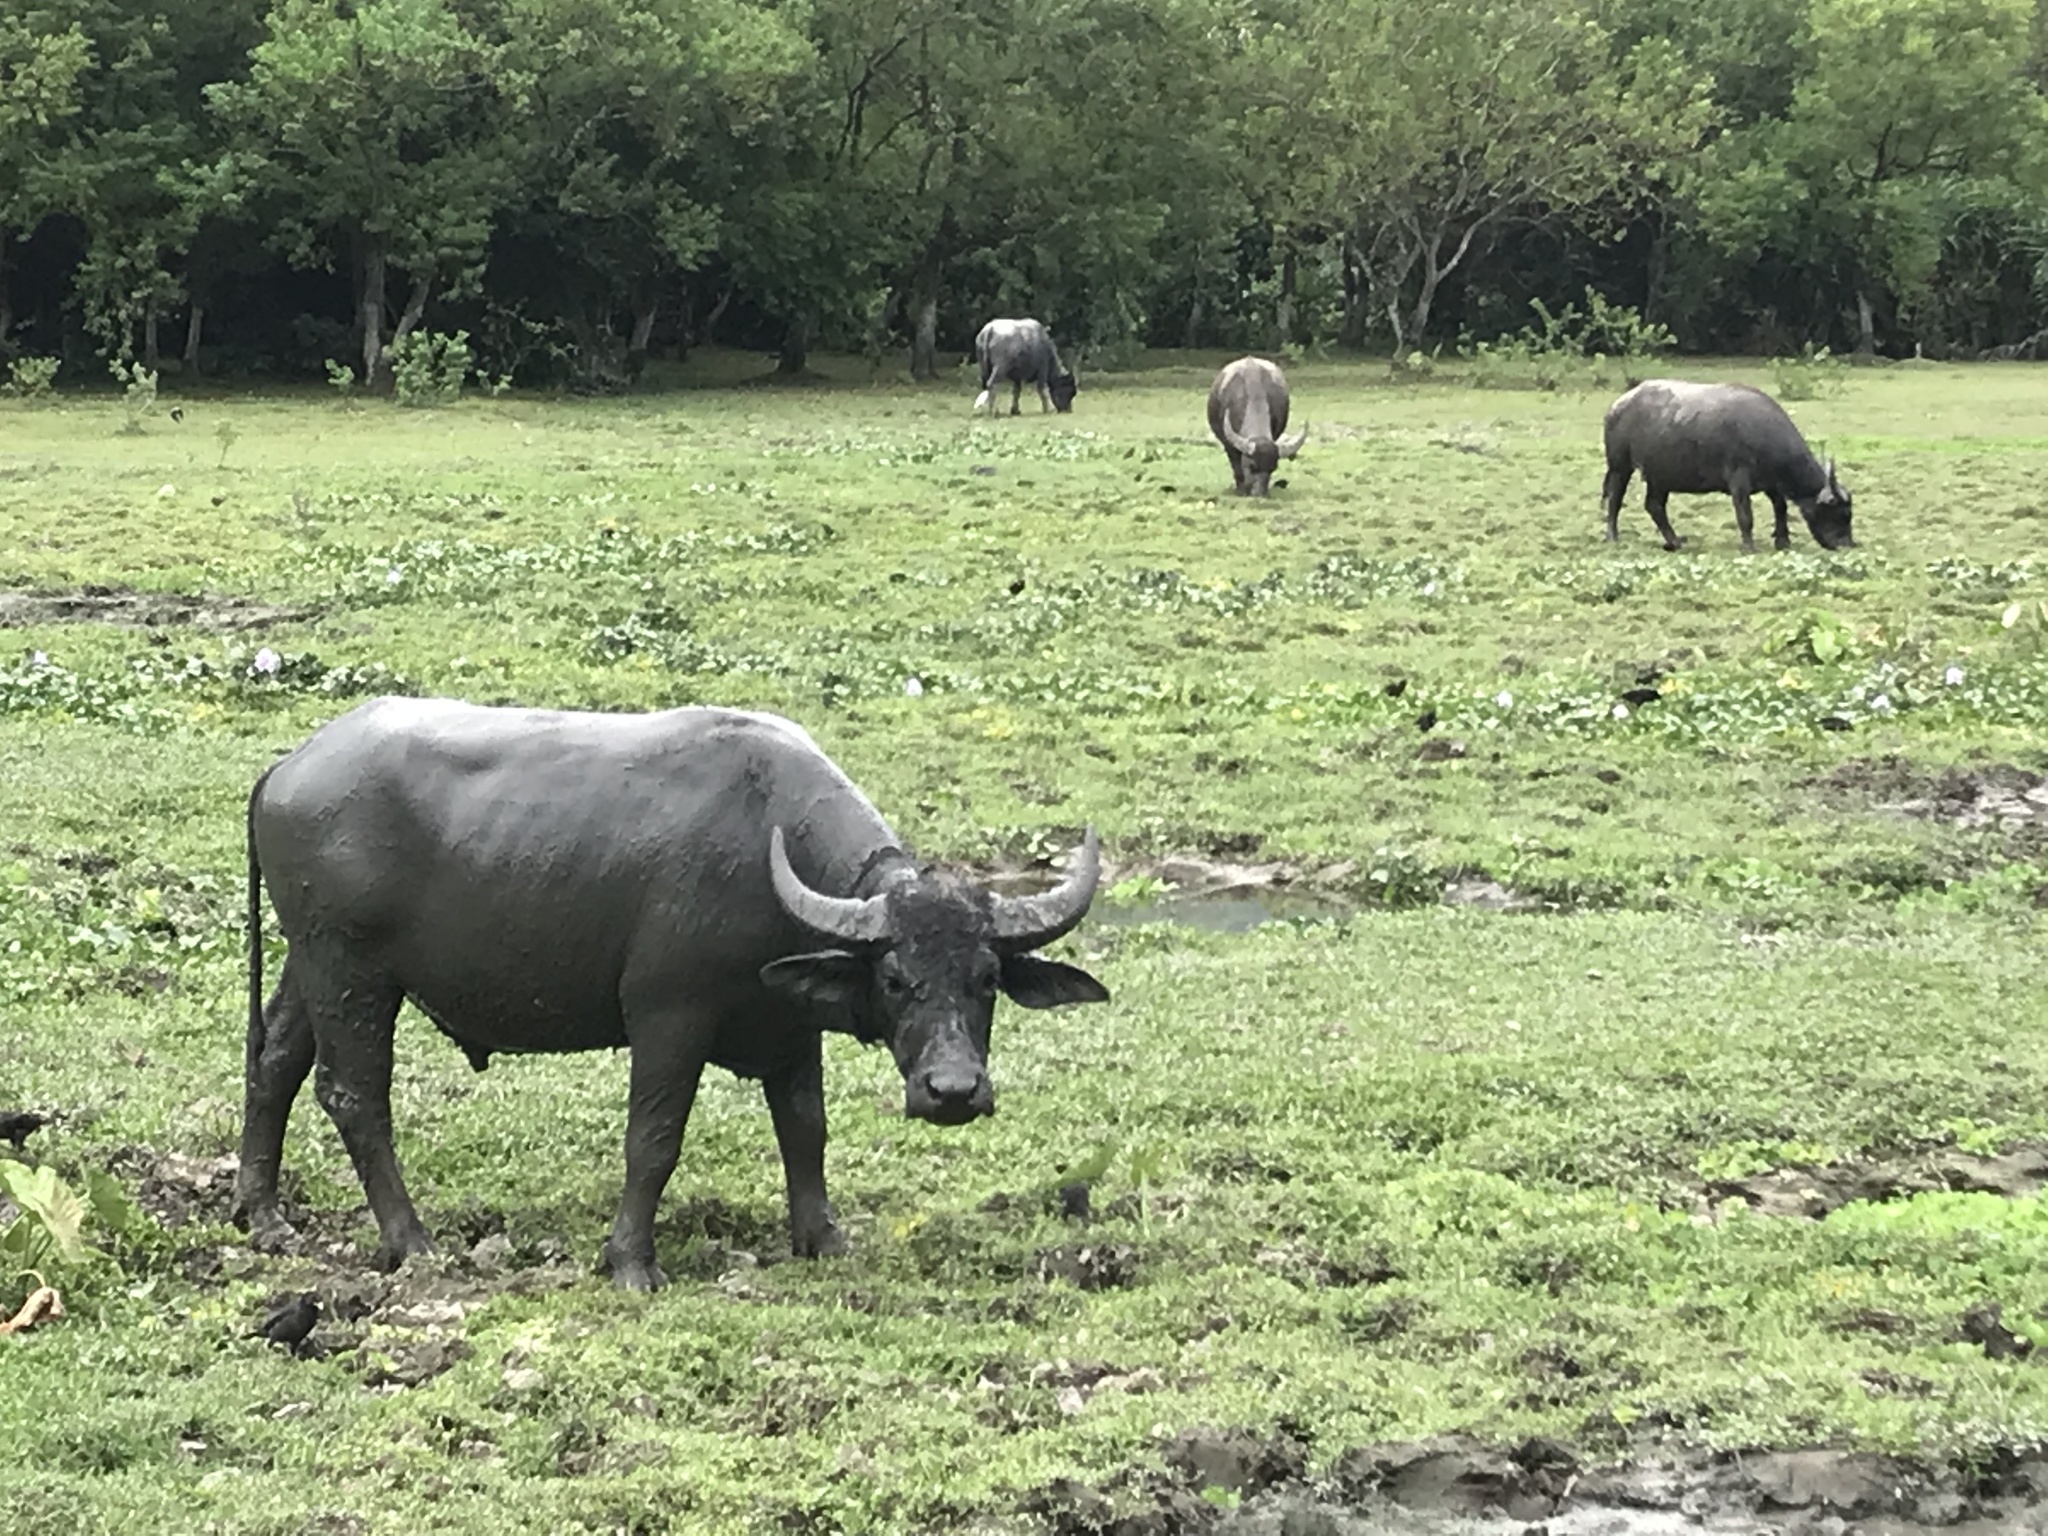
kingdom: Animalia
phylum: Chordata
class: Mammalia
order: Artiodactyla
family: Bovidae
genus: Bubalus
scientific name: Bubalus bubalis
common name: Water buffalo
